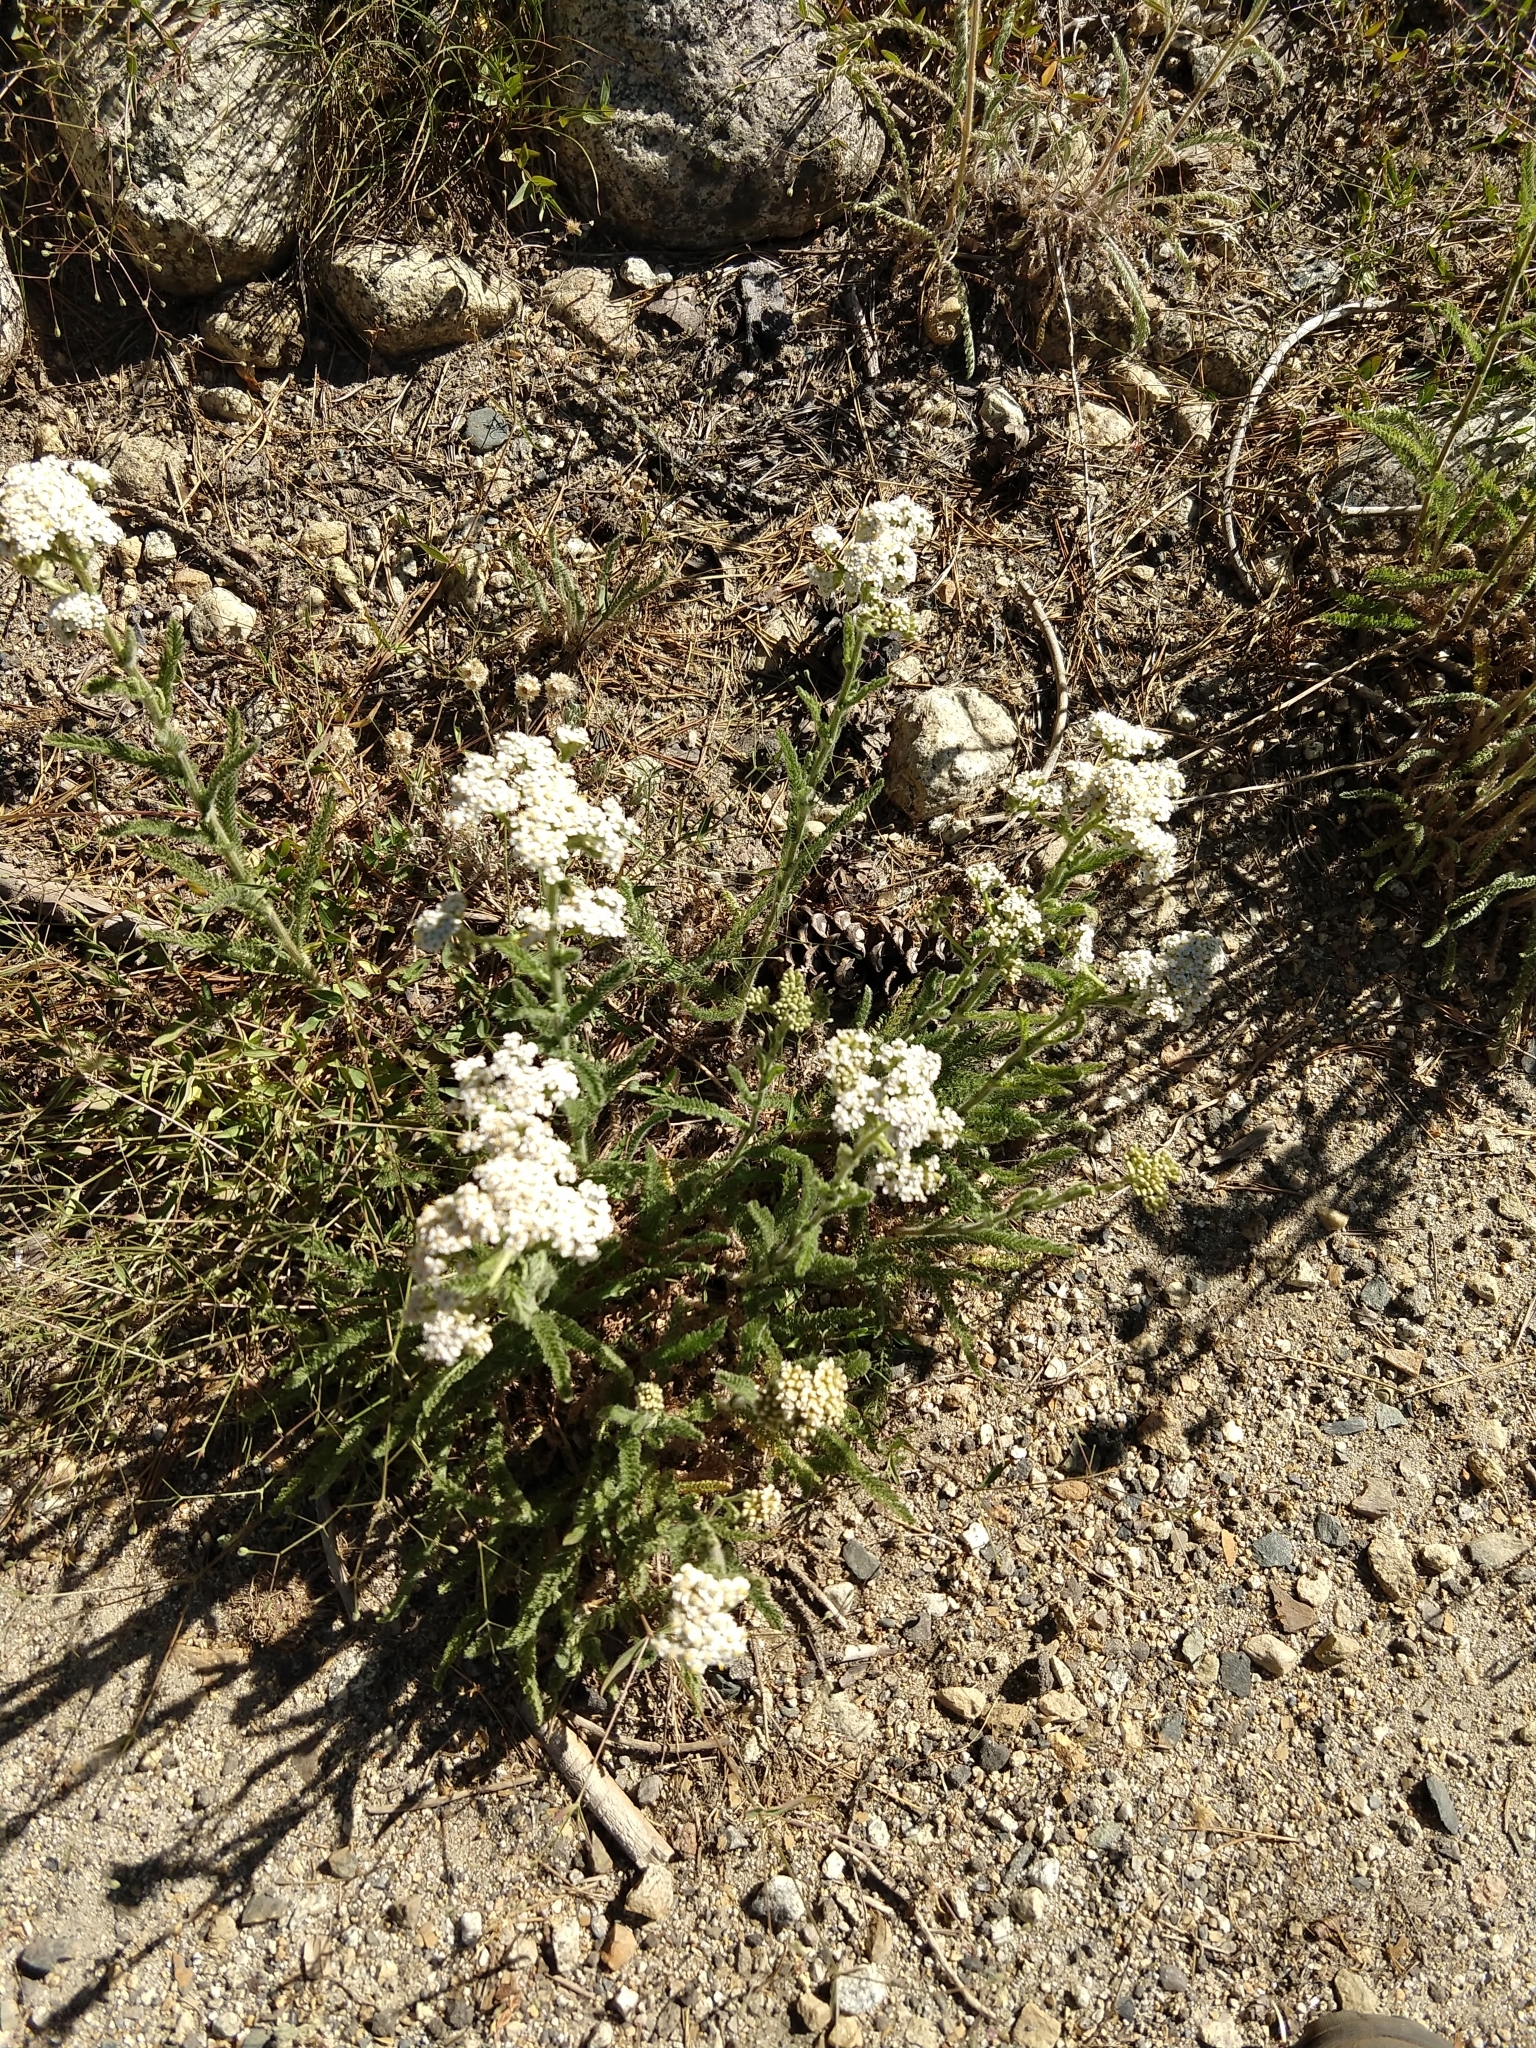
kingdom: Plantae
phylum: Tracheophyta
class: Magnoliopsida
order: Asterales
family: Asteraceae
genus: Achillea
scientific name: Achillea millefolium
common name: Yarrow
